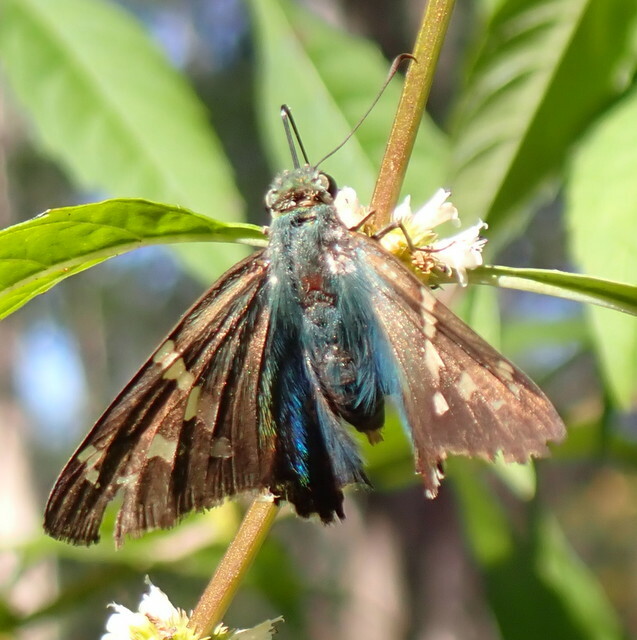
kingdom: Animalia
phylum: Arthropoda
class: Insecta
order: Lepidoptera
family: Hesperiidae
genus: Urbanus
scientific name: Urbanus proteus
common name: Long-tailed skipper
